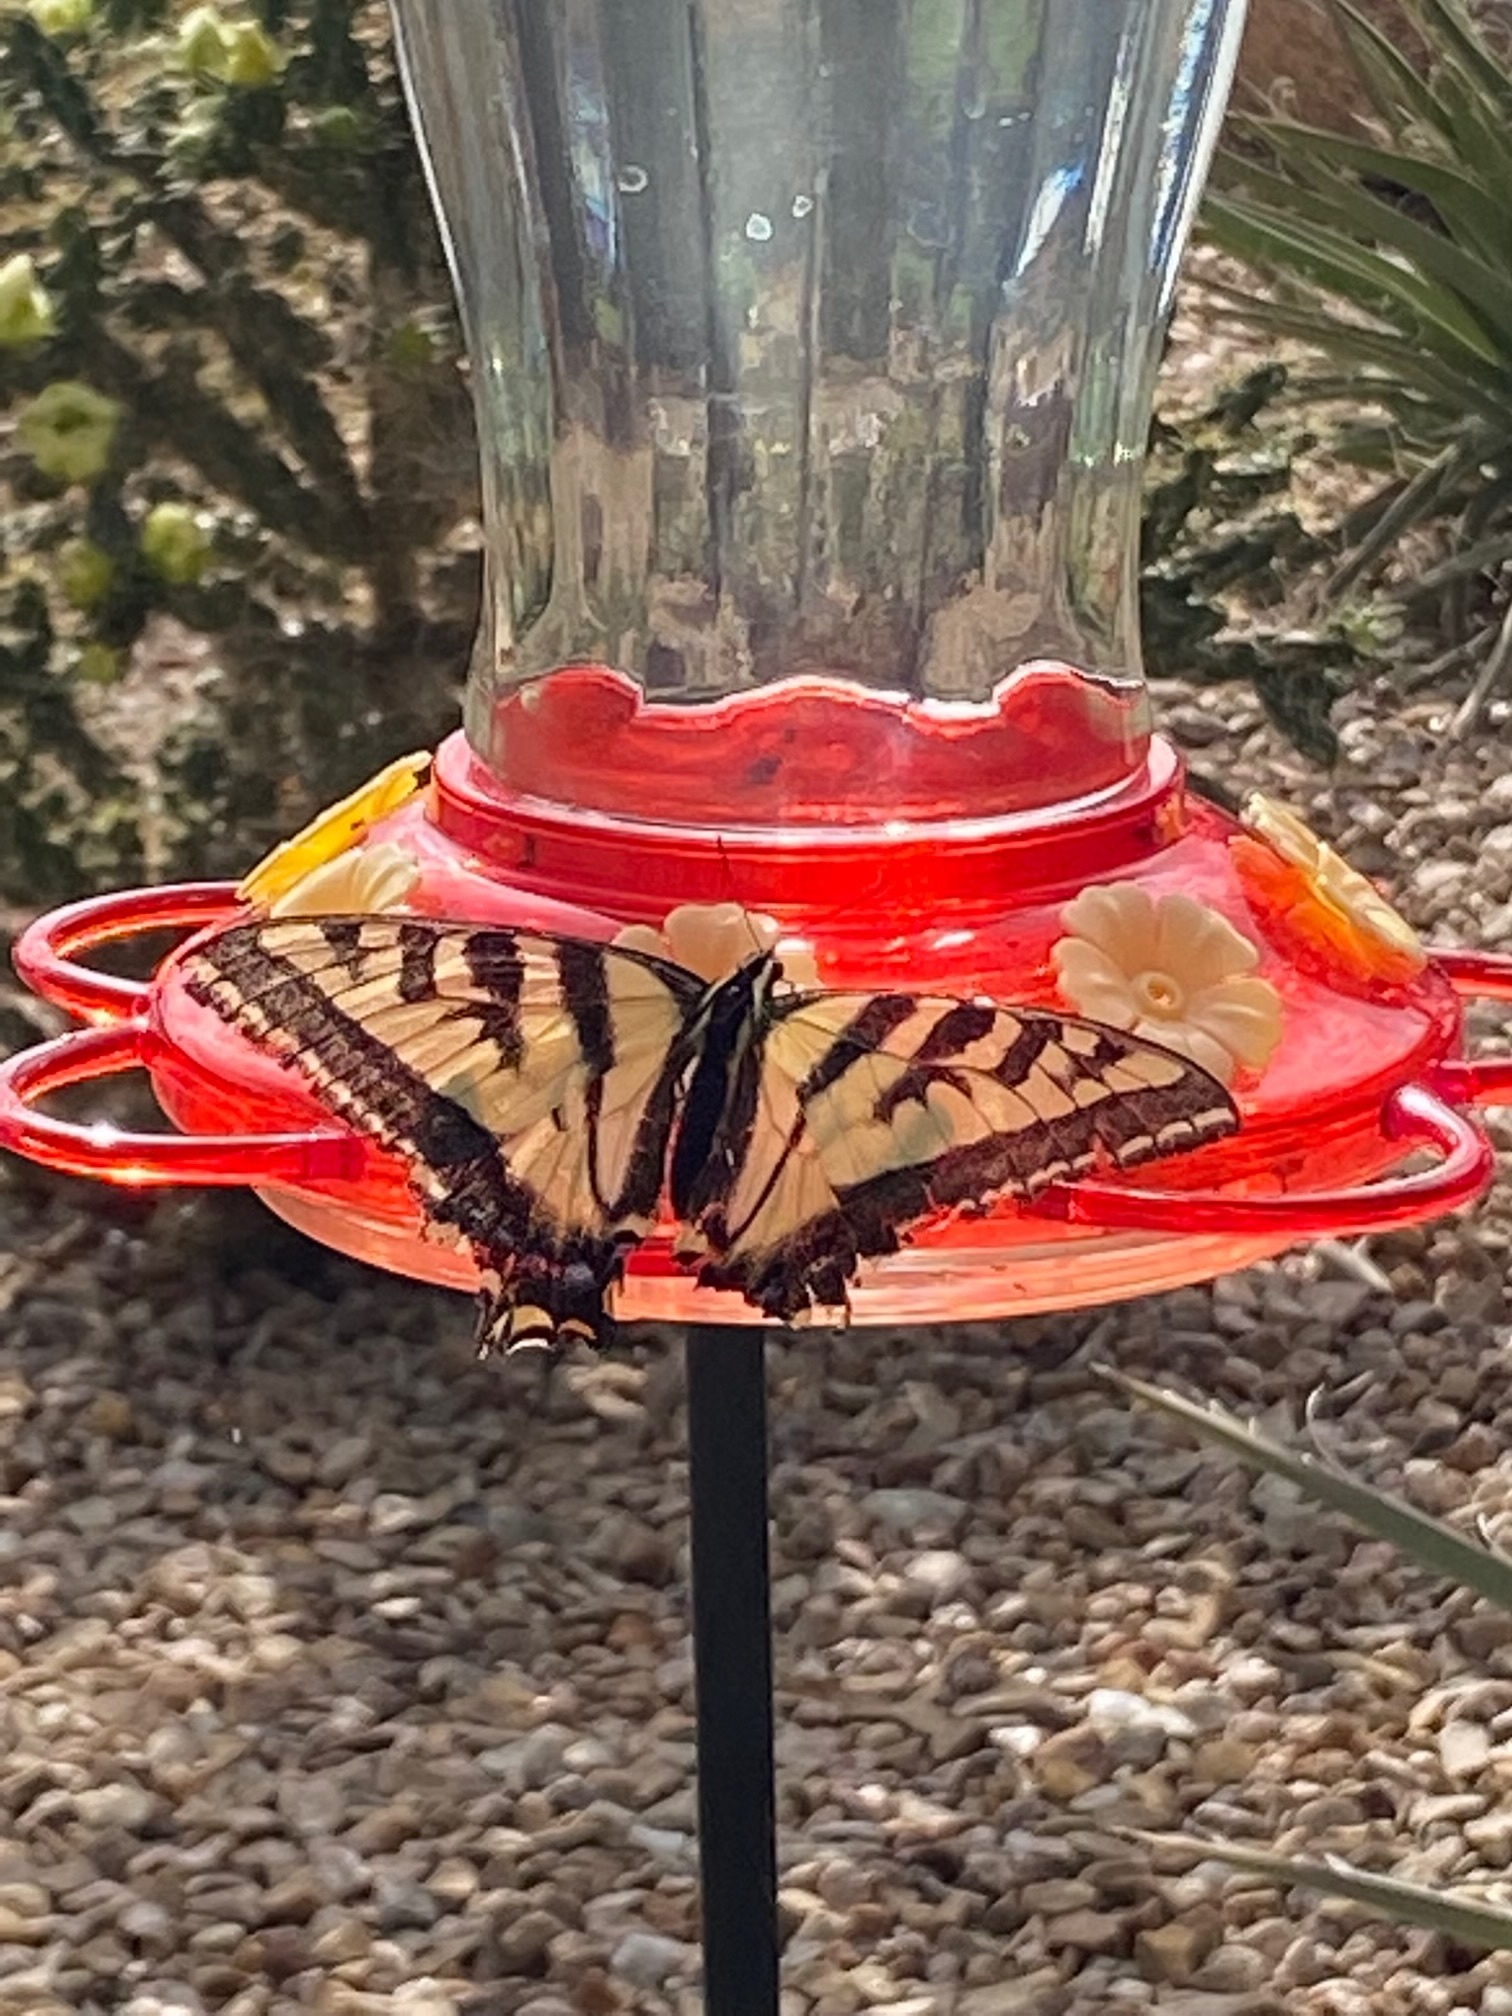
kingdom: Animalia
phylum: Arthropoda
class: Insecta
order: Lepidoptera
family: Papilionidae
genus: Papilio
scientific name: Papilio rutulus
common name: Western tiger swallowtail
